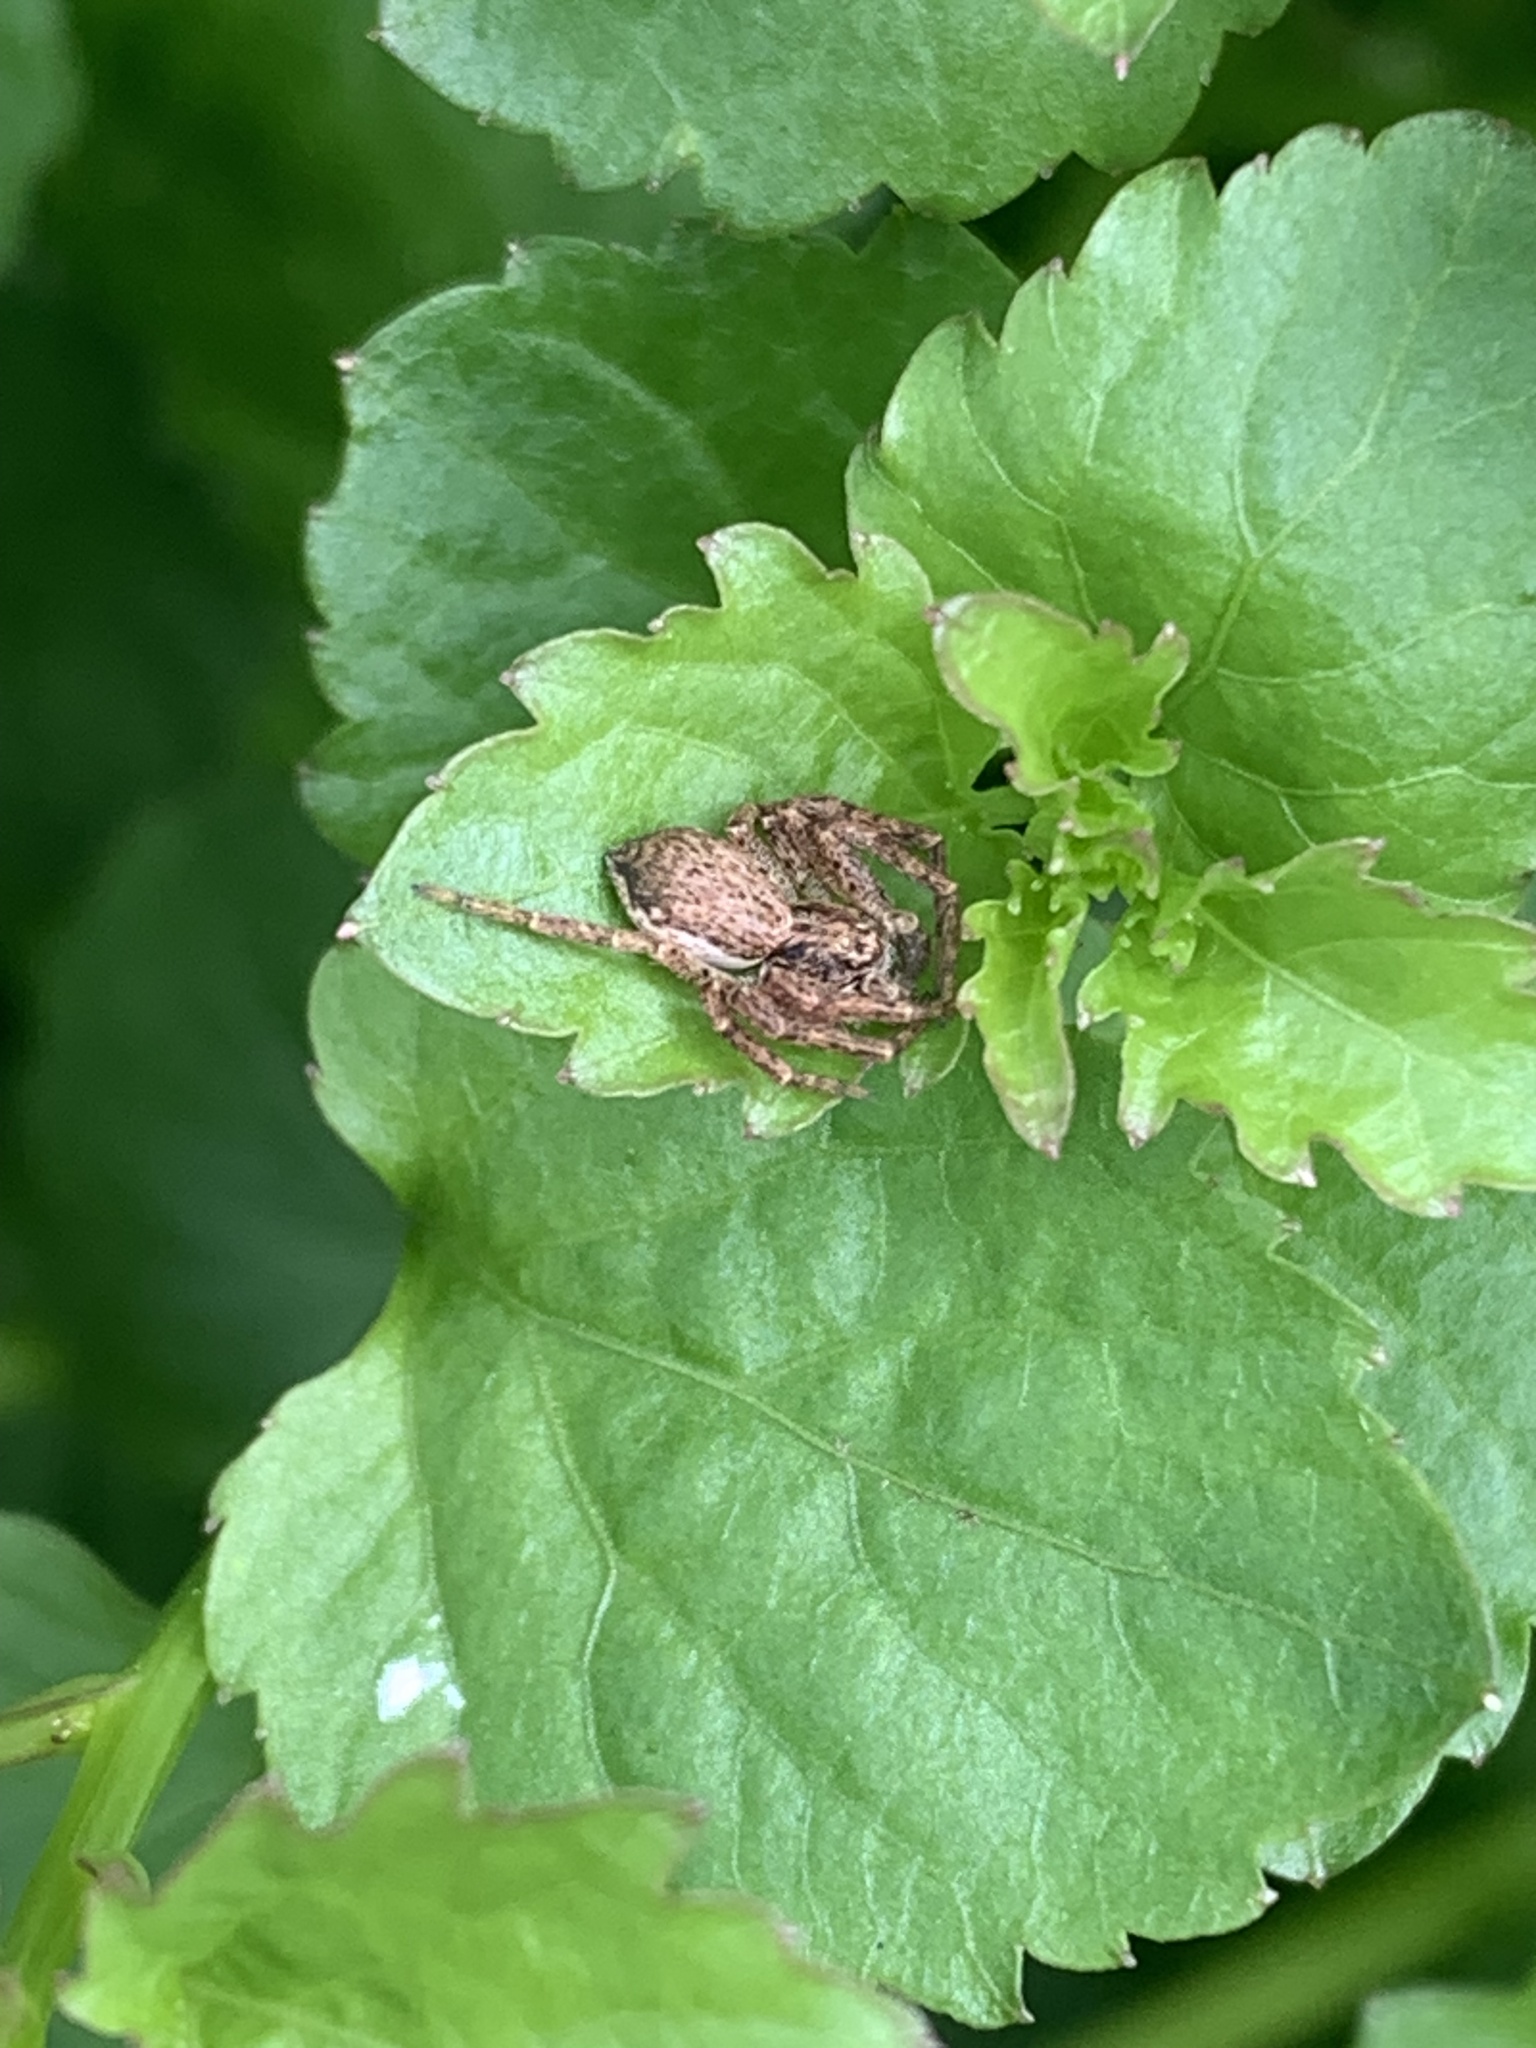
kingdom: Animalia
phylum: Arthropoda
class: Arachnida
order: Araneae
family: Philodromidae
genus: Philodromus
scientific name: Philodromus dispar
